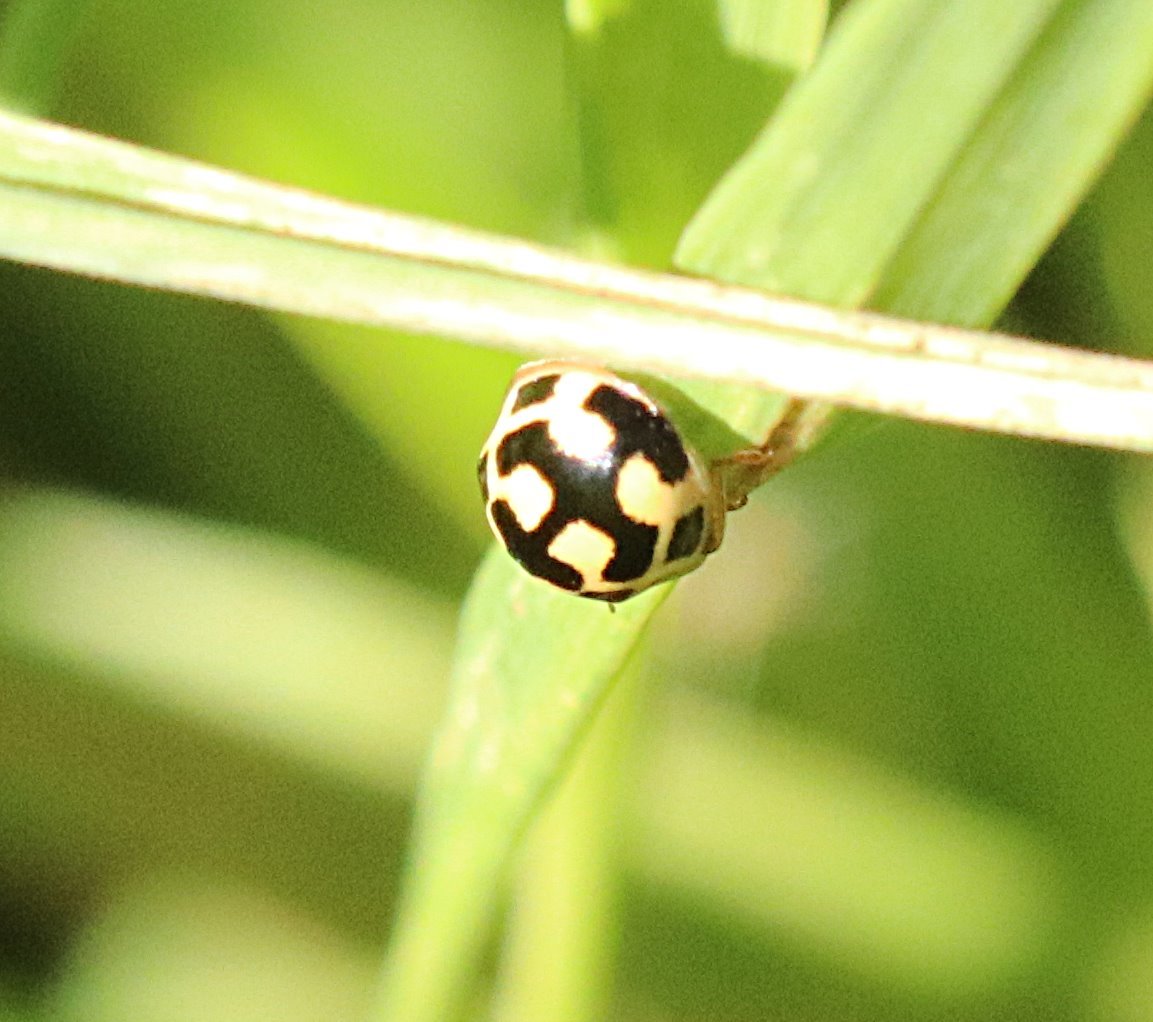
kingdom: Animalia
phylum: Arthropoda
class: Insecta
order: Coleoptera
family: Coccinellidae
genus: Propylaea
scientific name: Propylaea quatuordecimpunctata
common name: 14-spotted ladybird beetle
